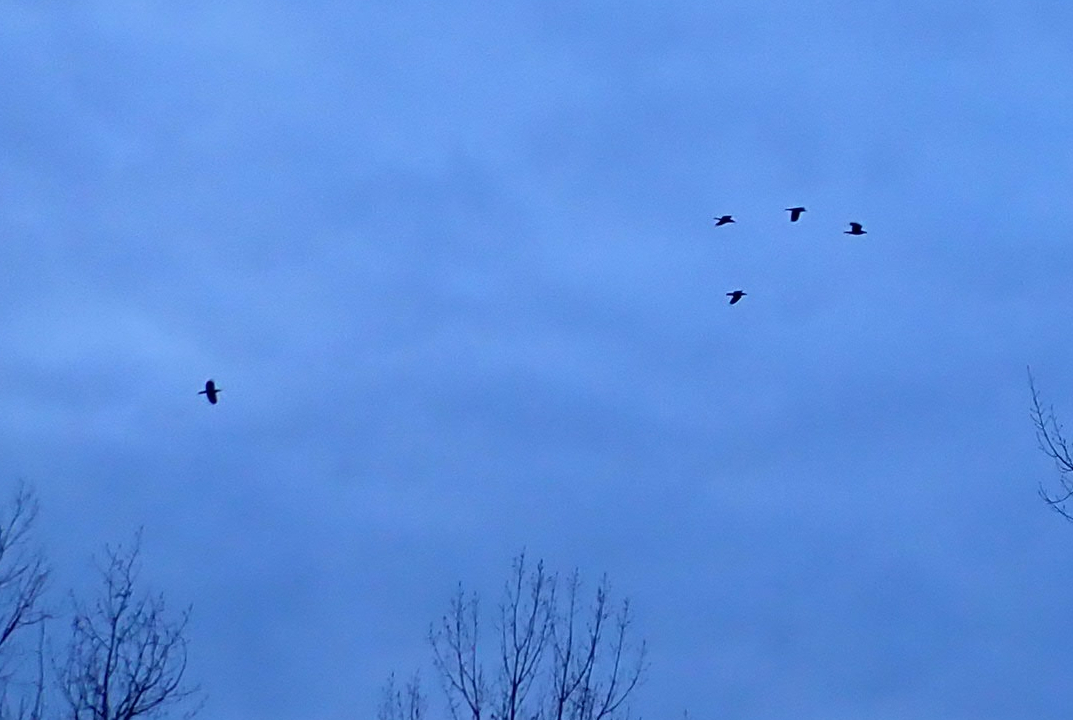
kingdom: Animalia
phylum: Chordata
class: Aves
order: Passeriformes
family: Corvidae
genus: Corvus
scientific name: Corvus corax
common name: Common raven
